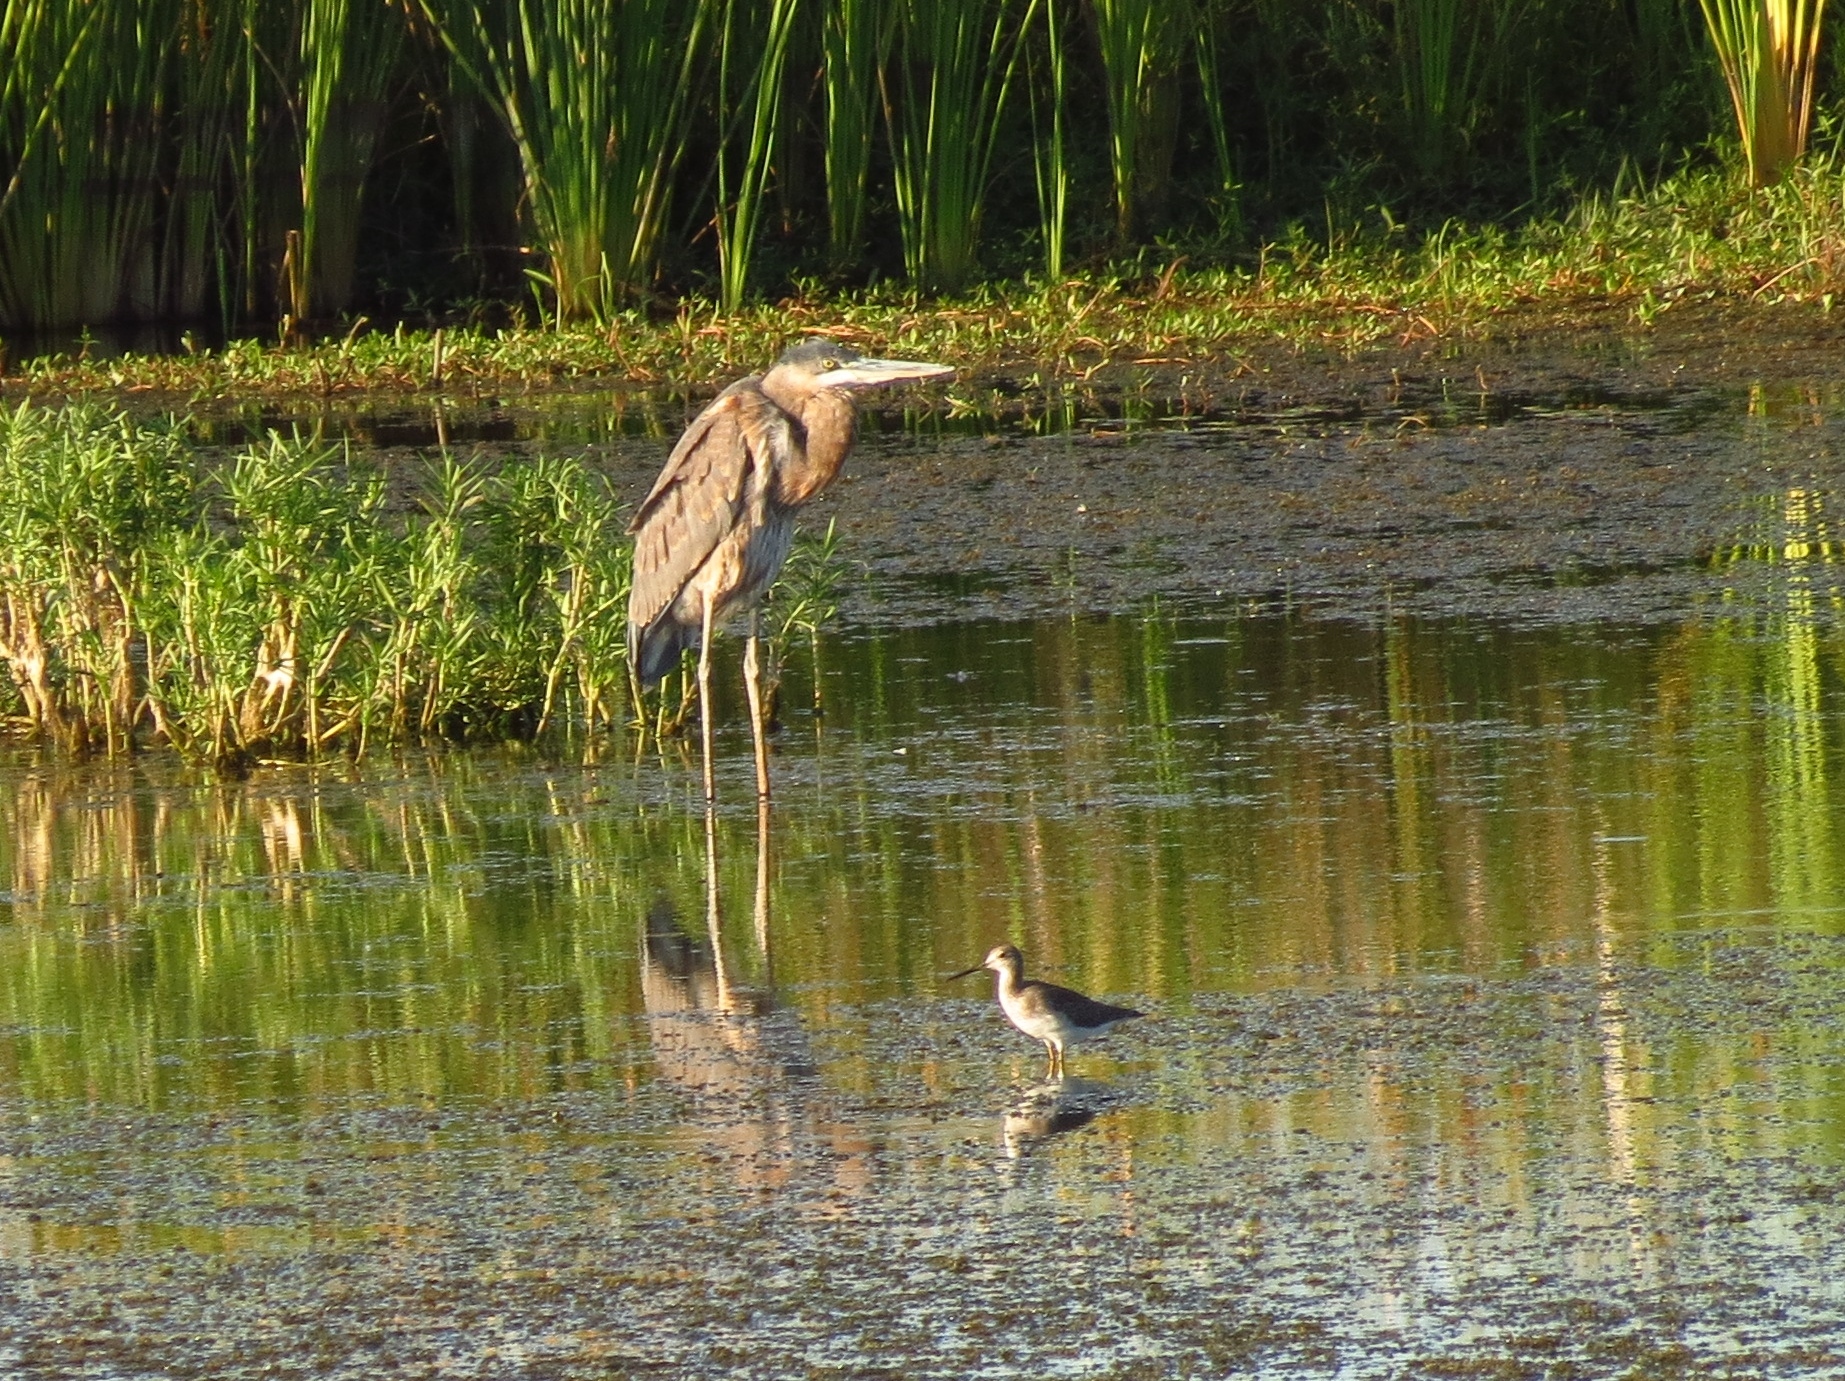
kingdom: Animalia
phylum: Chordata
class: Aves
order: Pelecaniformes
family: Ardeidae
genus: Ardea
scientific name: Ardea herodias
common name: Great blue heron
